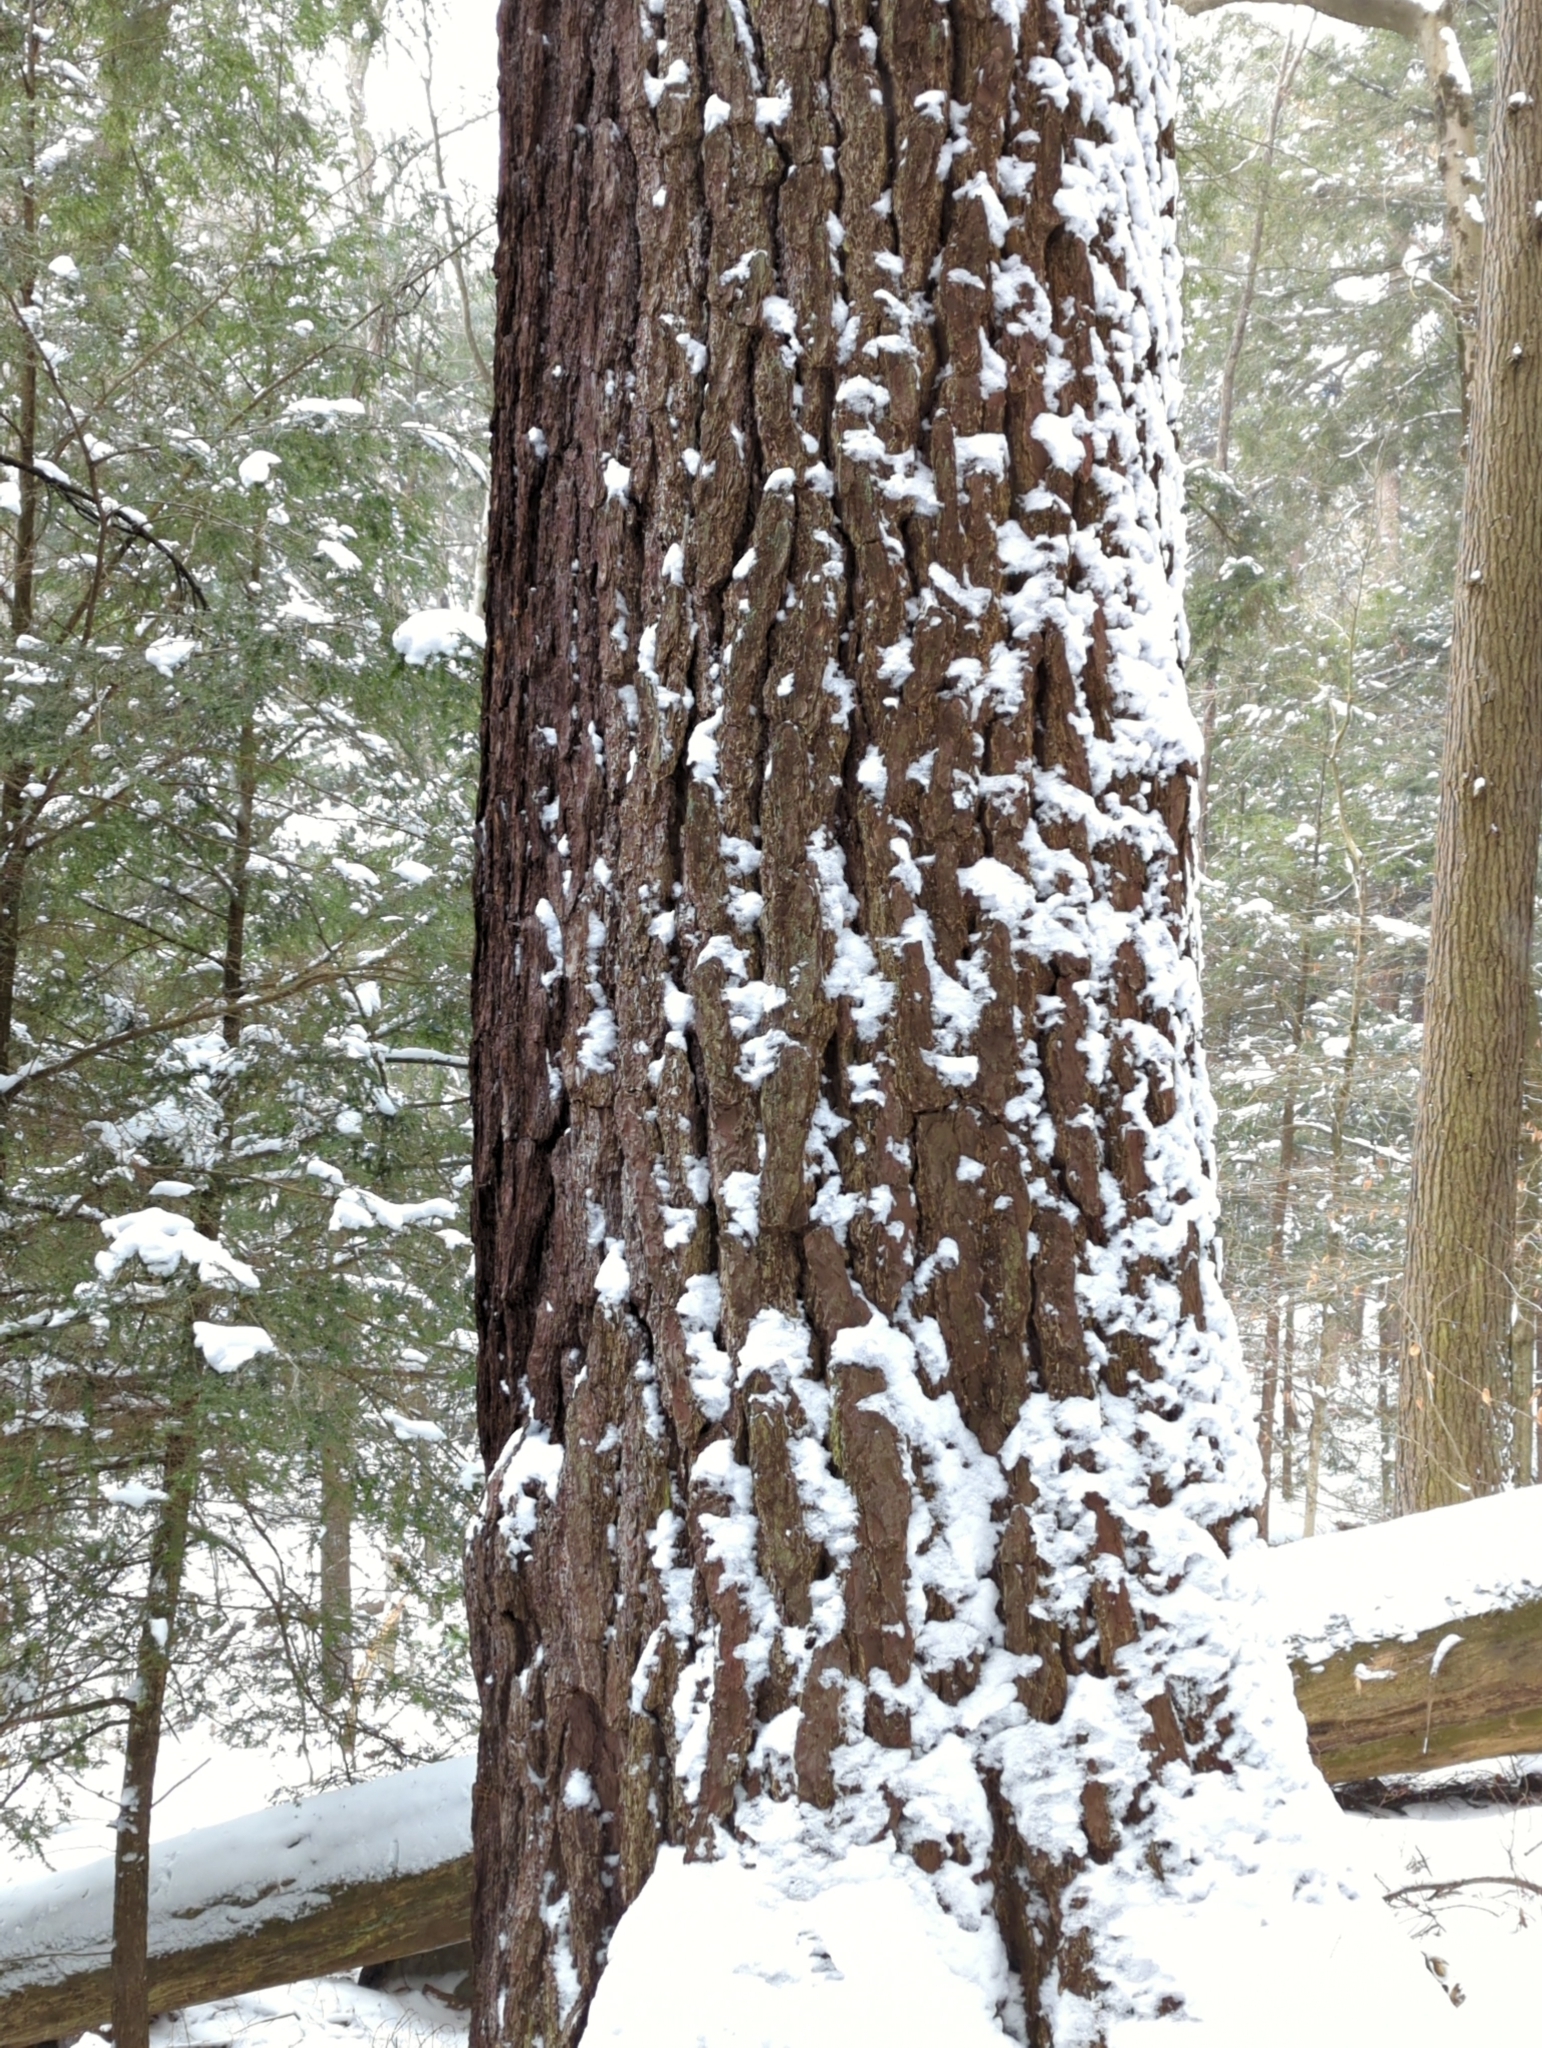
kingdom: Plantae
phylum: Tracheophyta
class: Pinopsida
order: Pinales
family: Pinaceae
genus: Pinus
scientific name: Pinus strobus
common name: Weymouth pine
